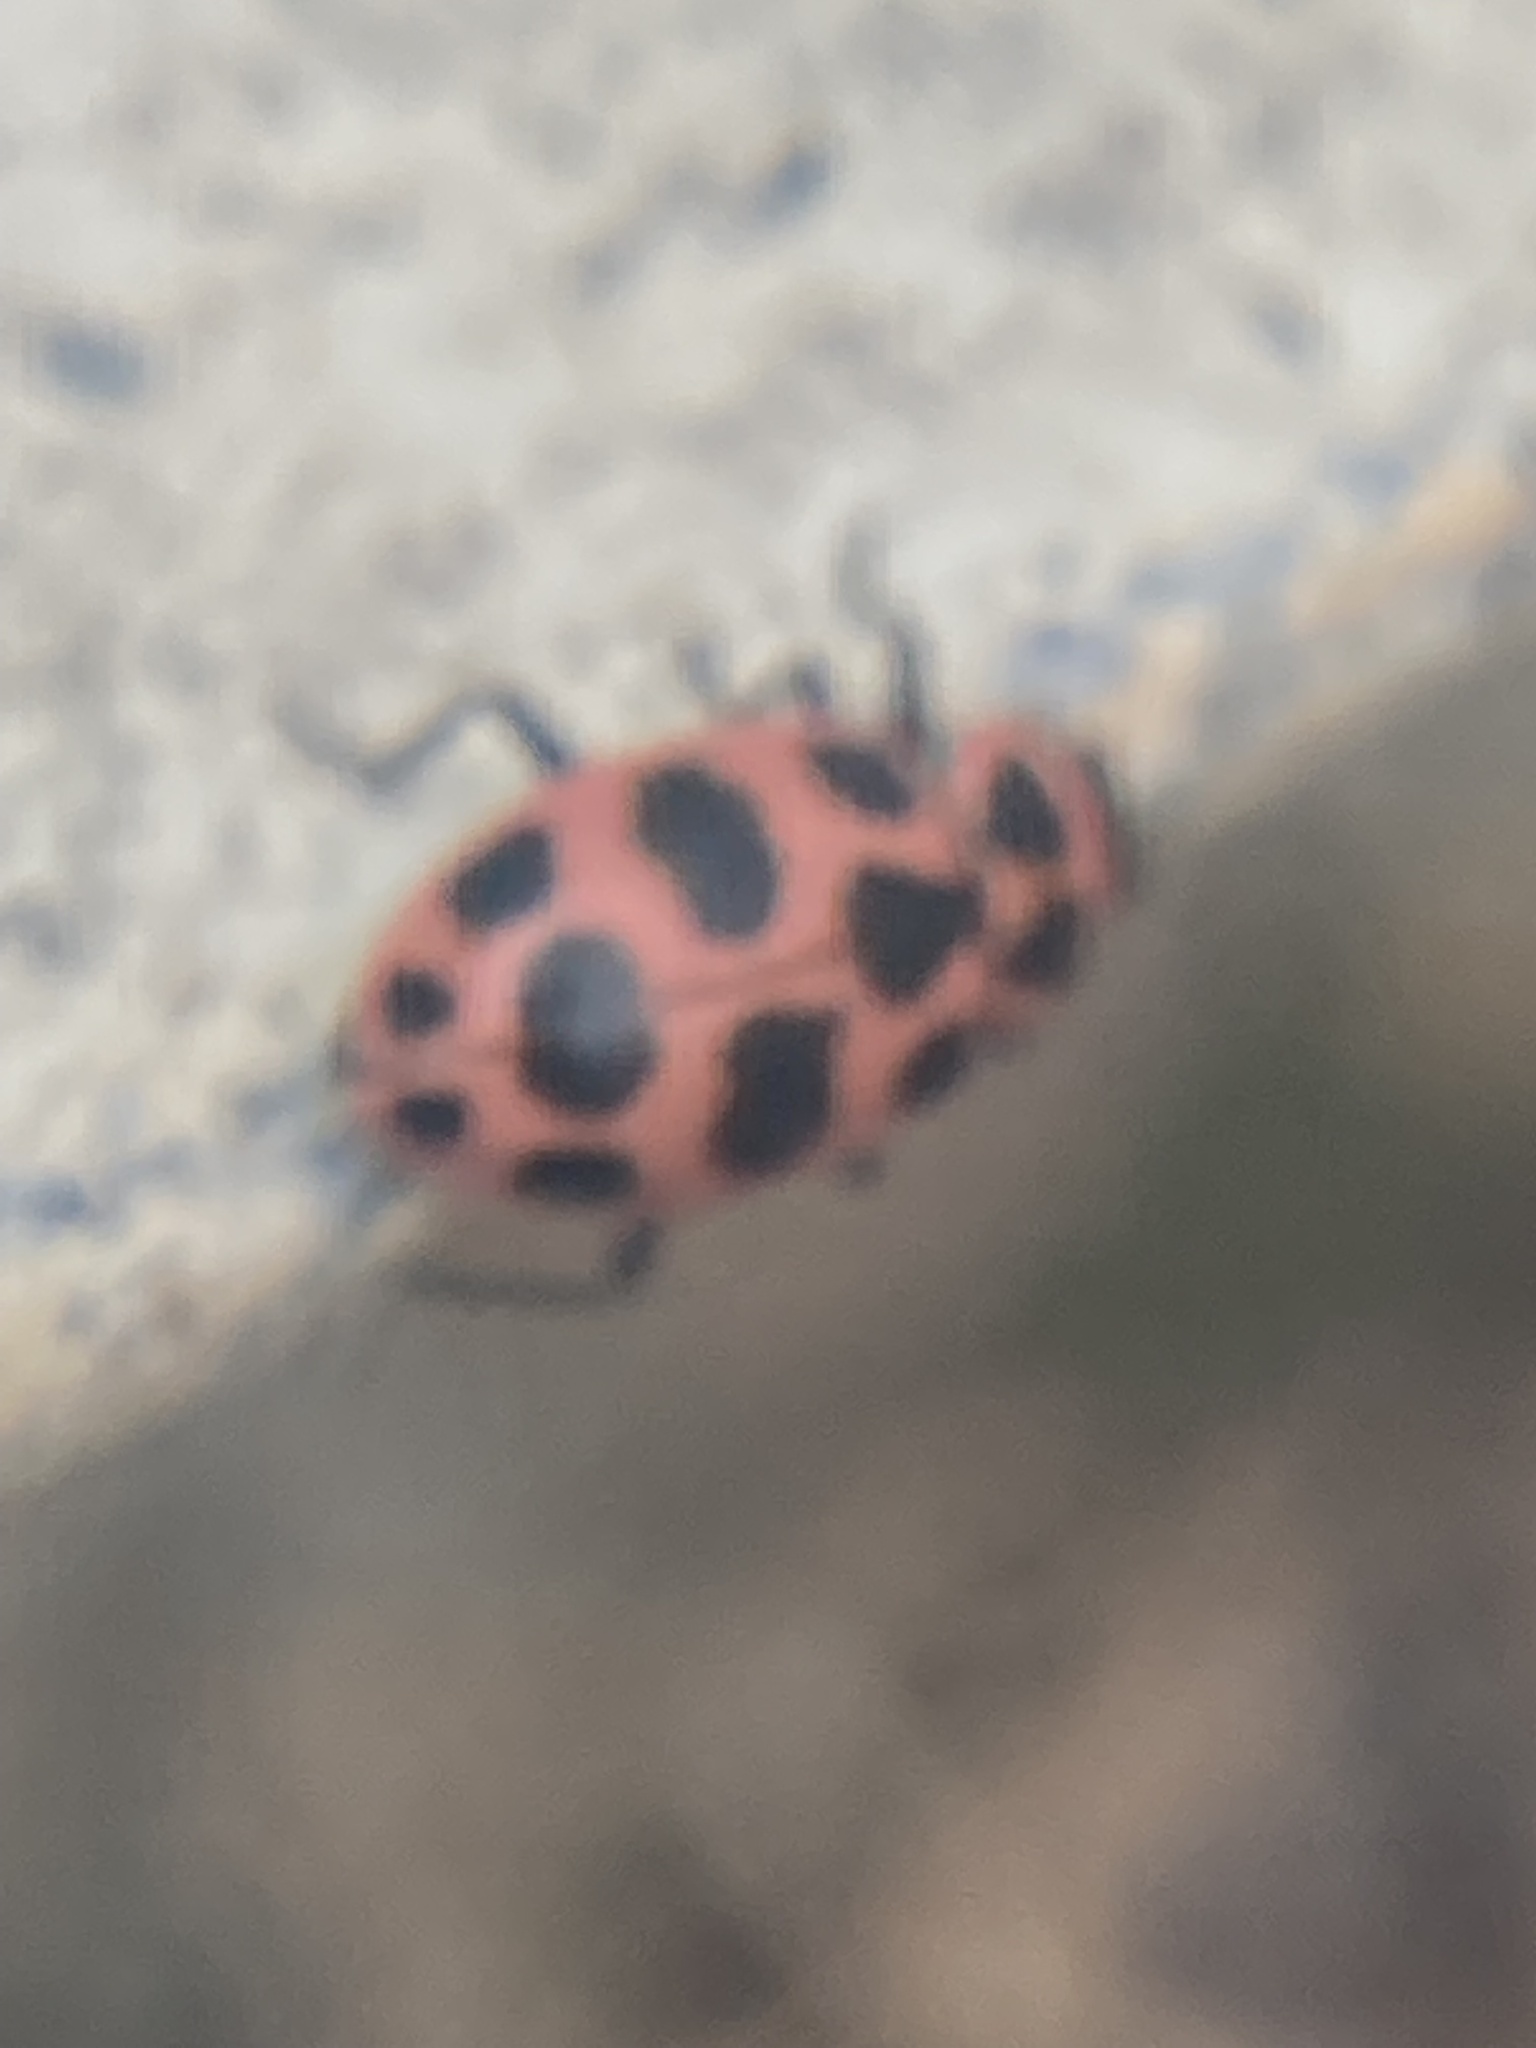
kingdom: Animalia
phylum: Arthropoda
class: Insecta
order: Coleoptera
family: Coccinellidae
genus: Coleomegilla
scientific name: Coleomegilla maculata
